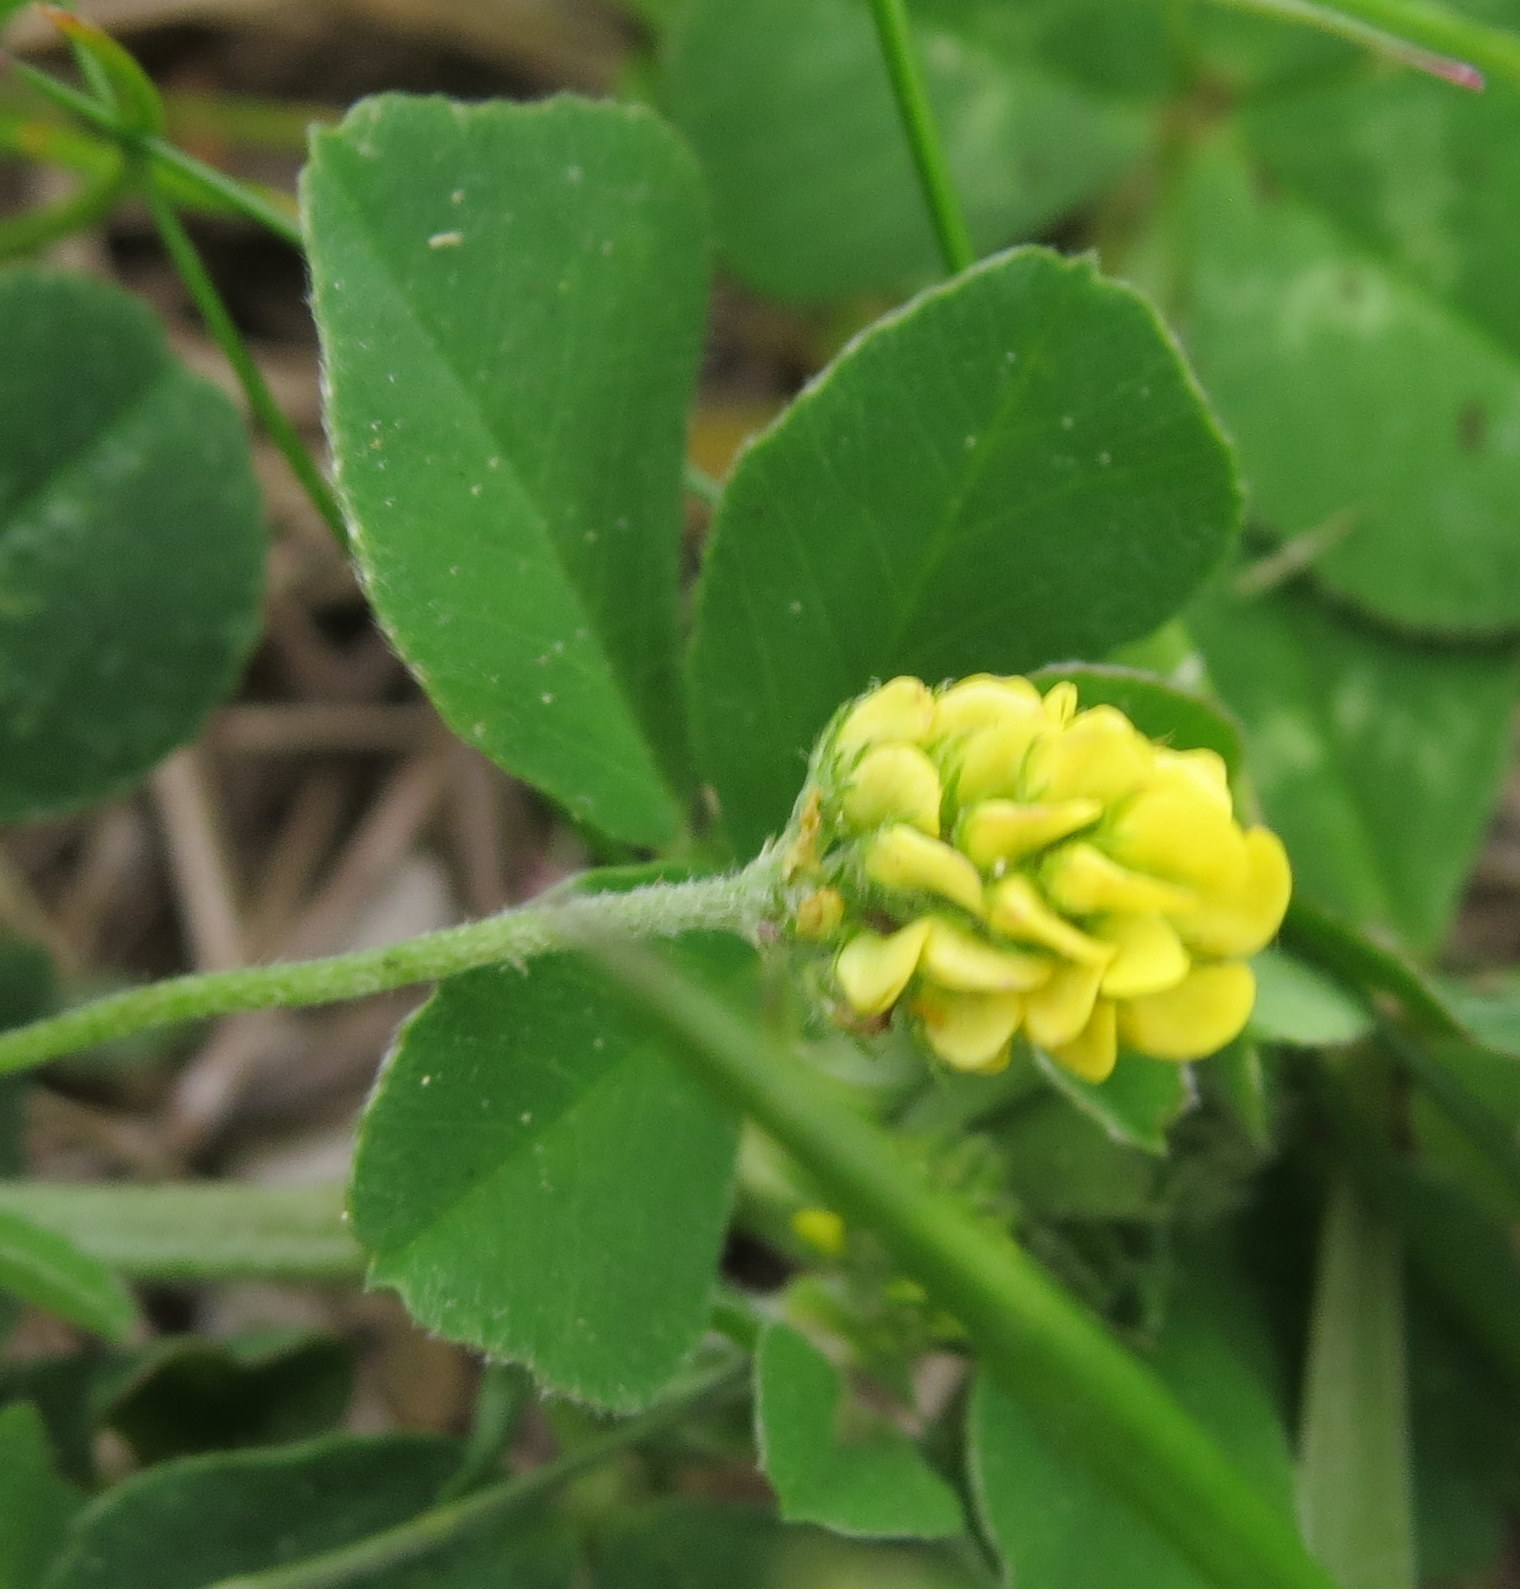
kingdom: Plantae
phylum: Tracheophyta
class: Magnoliopsida
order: Fabales
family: Fabaceae
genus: Medicago
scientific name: Medicago lupulina
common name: Black medick
